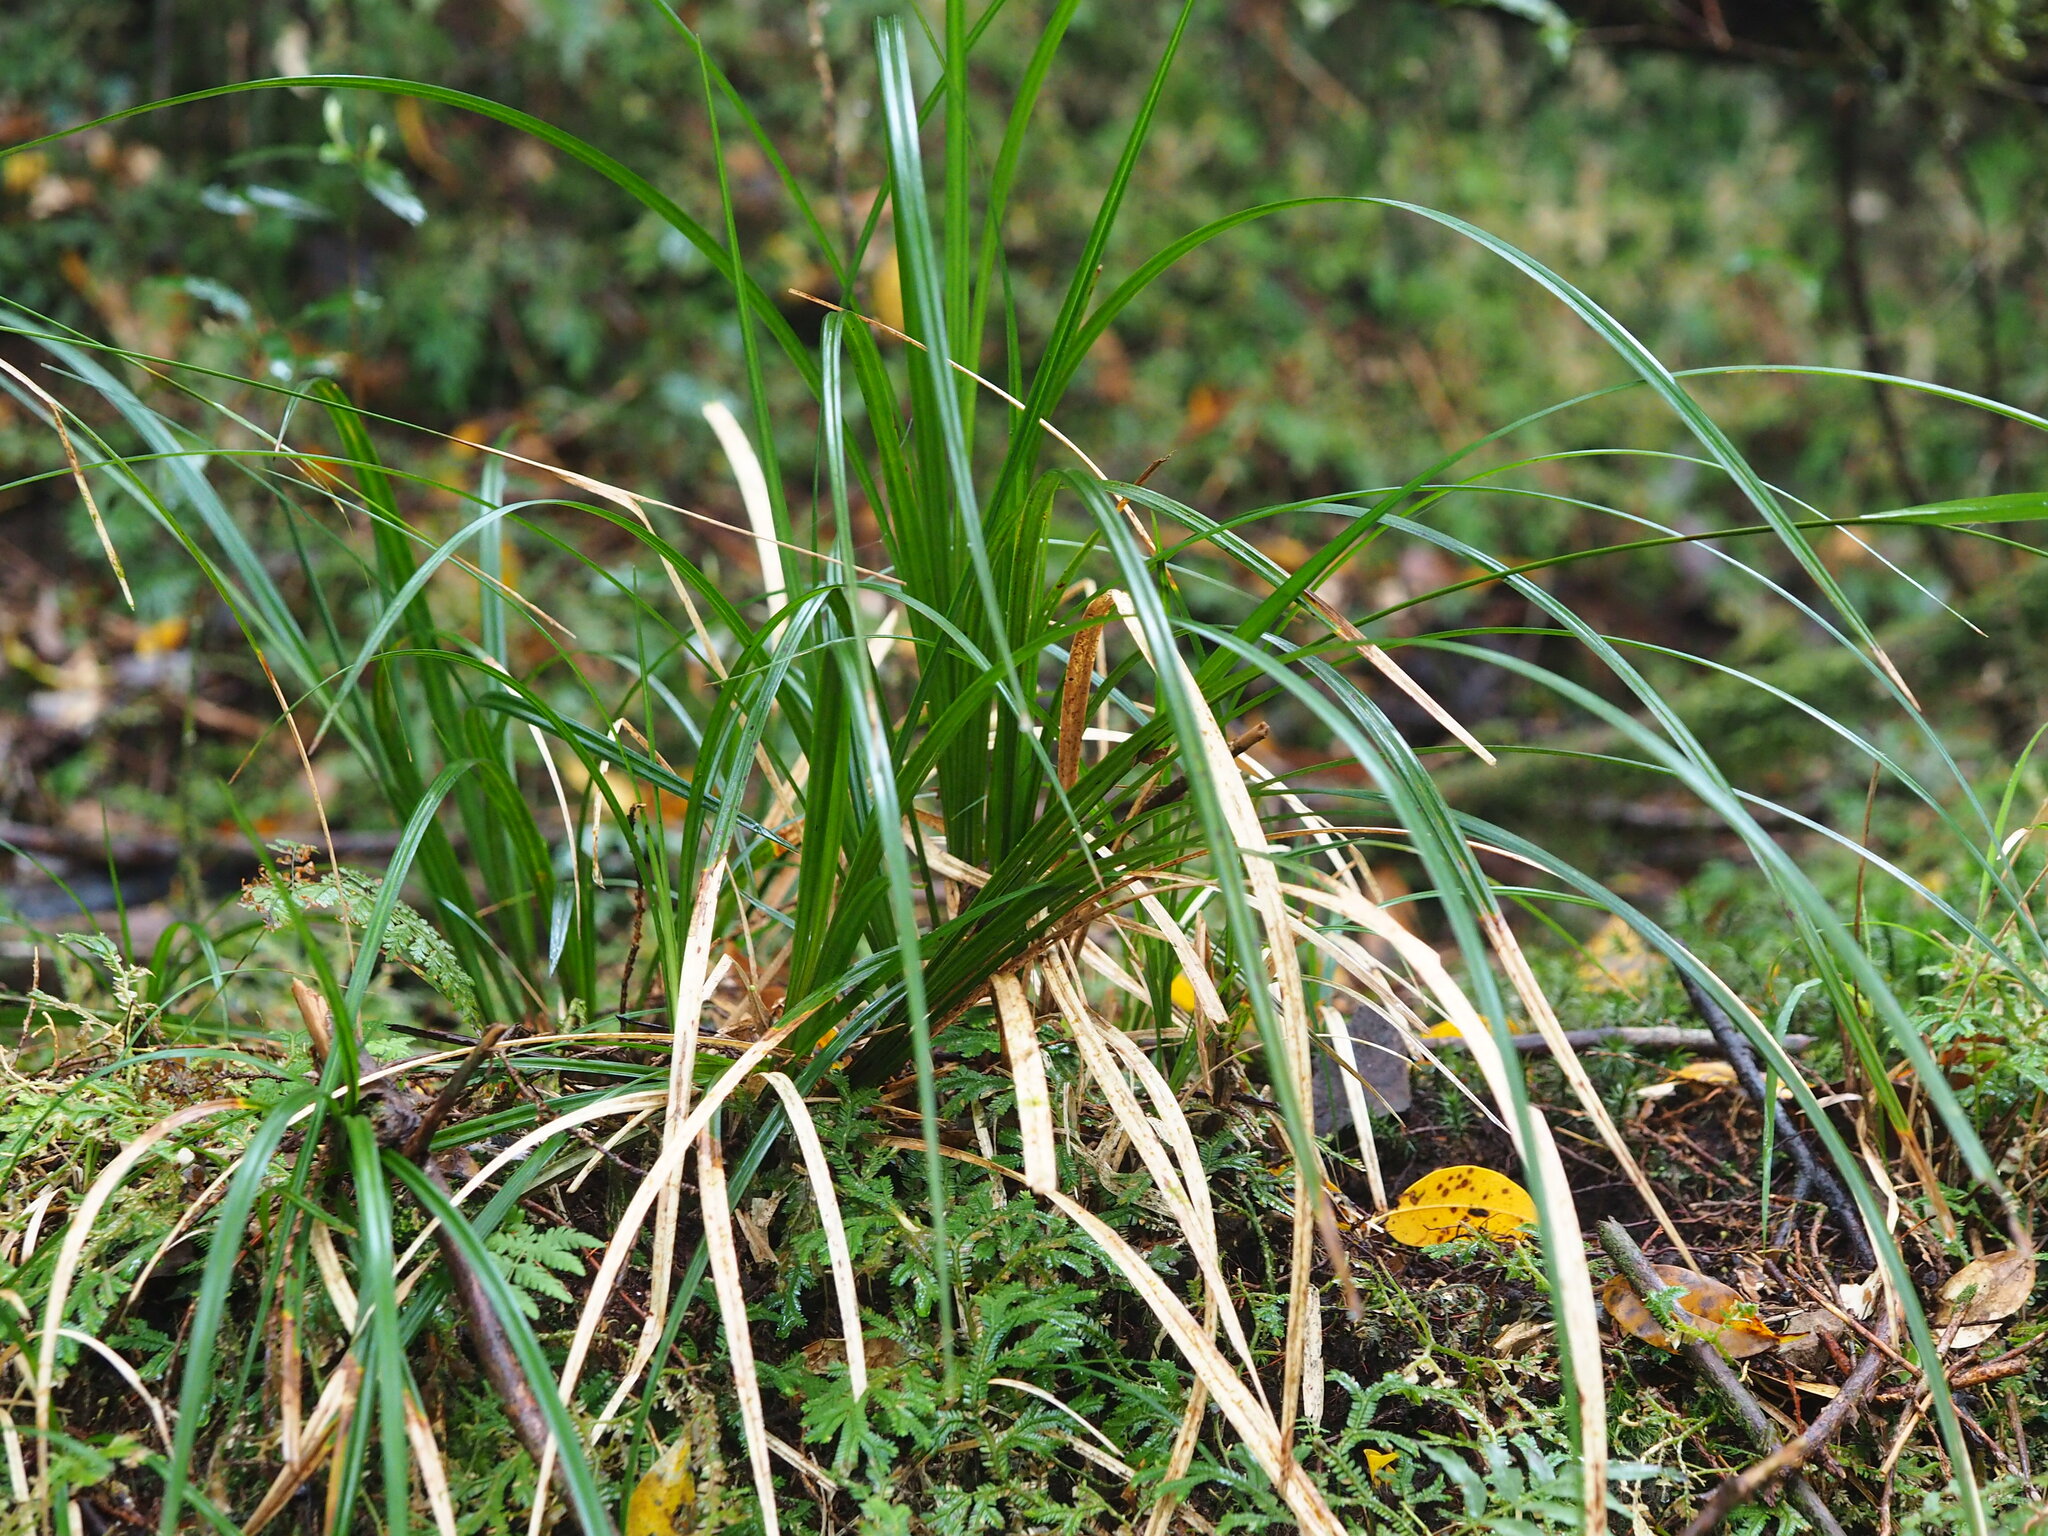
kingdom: Plantae
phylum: Tracheophyta
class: Liliopsida
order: Poales
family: Cyperaceae
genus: Carex
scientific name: Carex perakensis
